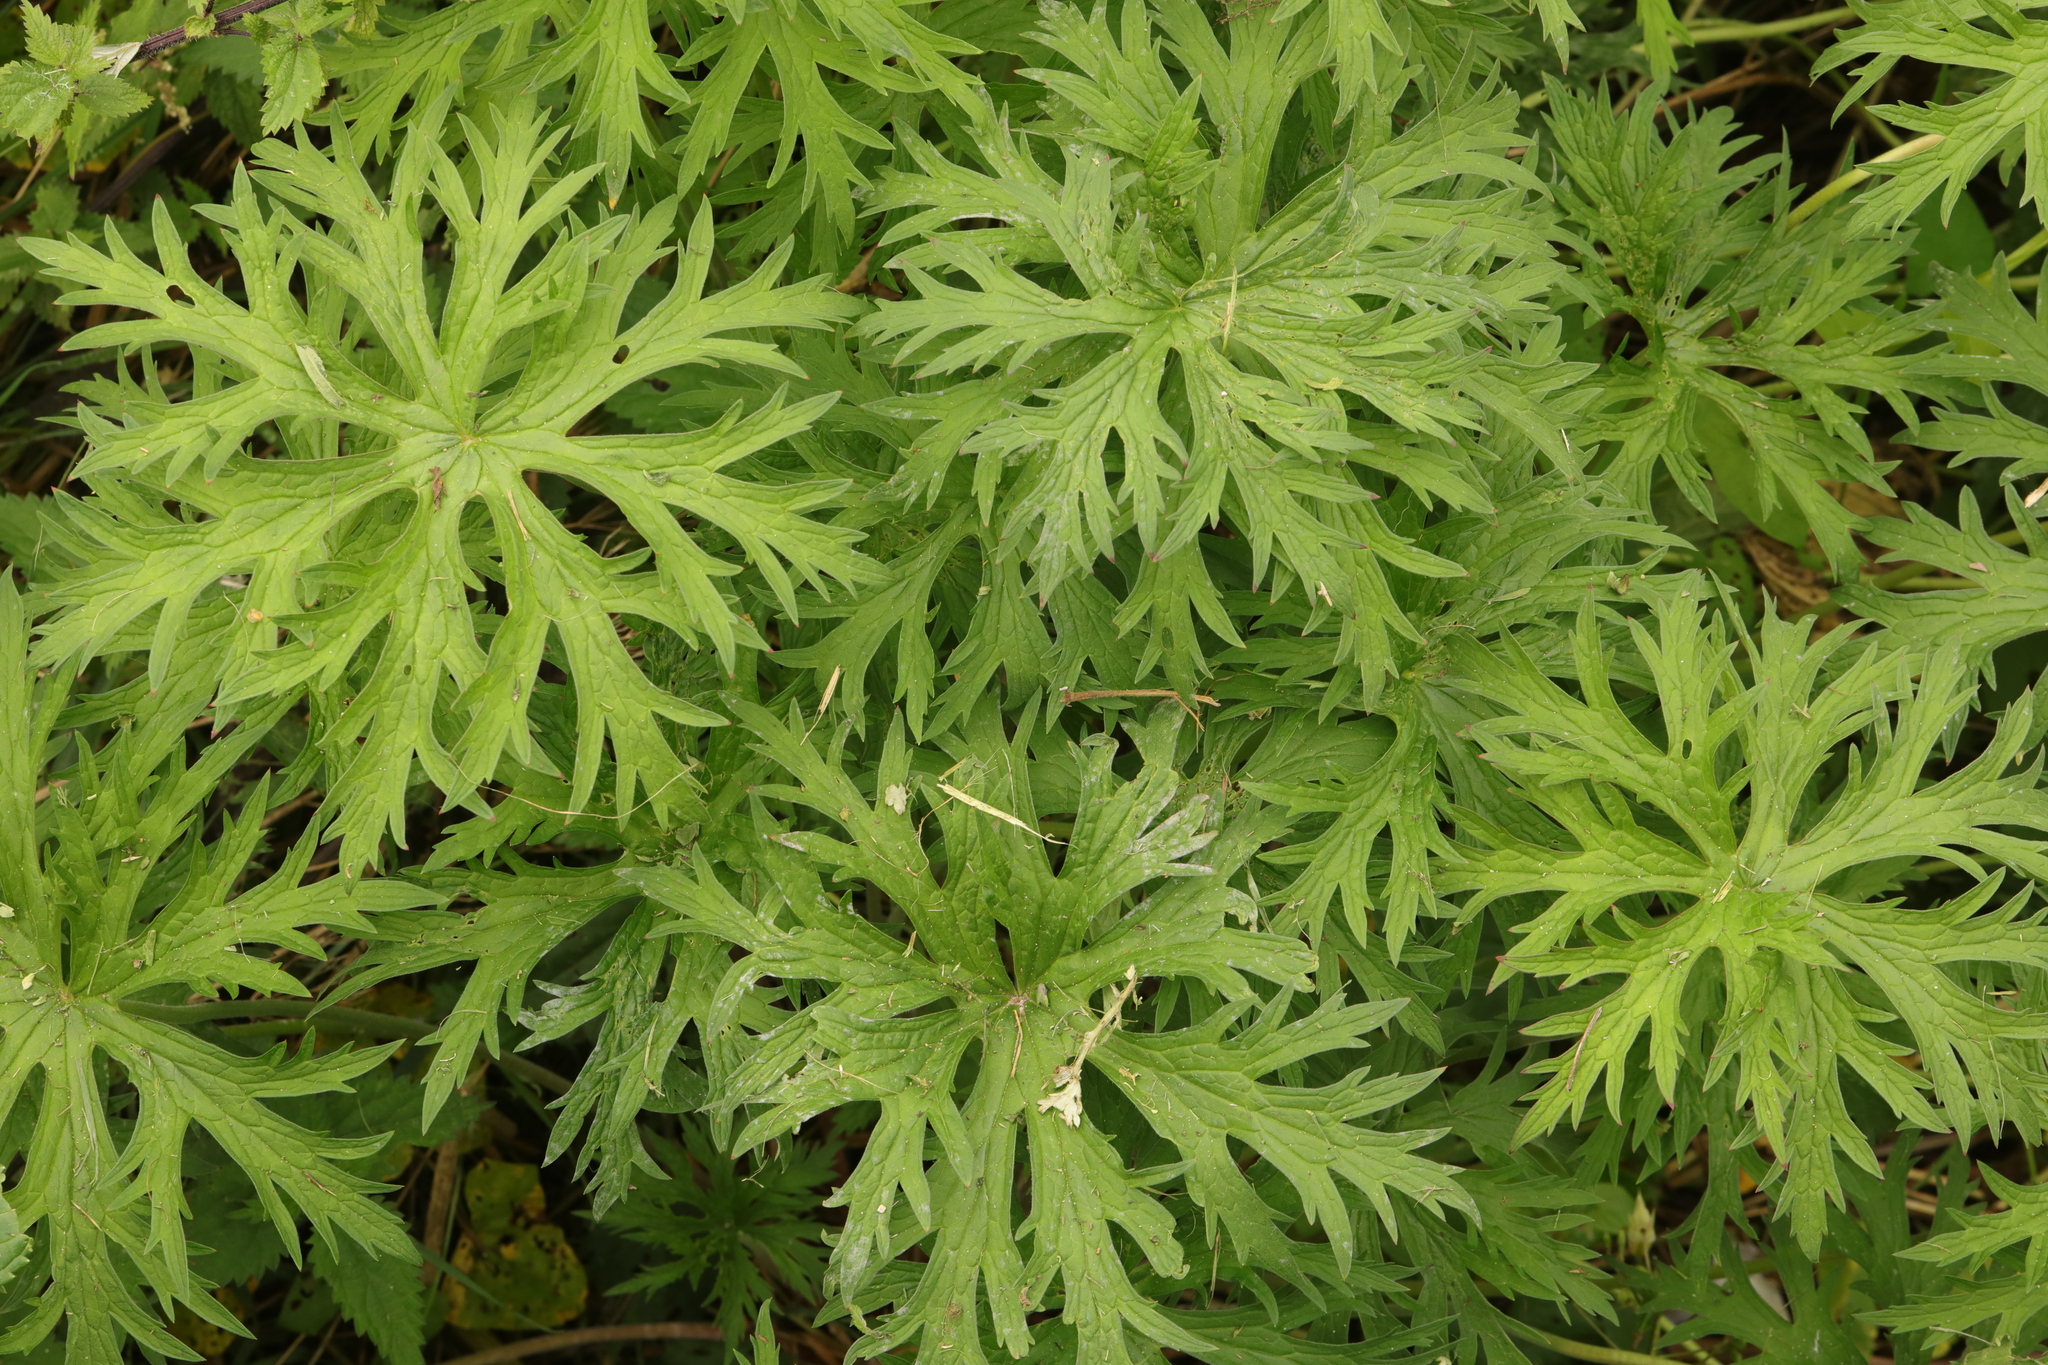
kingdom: Plantae
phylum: Tracheophyta
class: Magnoliopsida
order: Geraniales
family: Geraniaceae
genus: Geranium
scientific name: Geranium pratense
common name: Meadow crane's-bill
